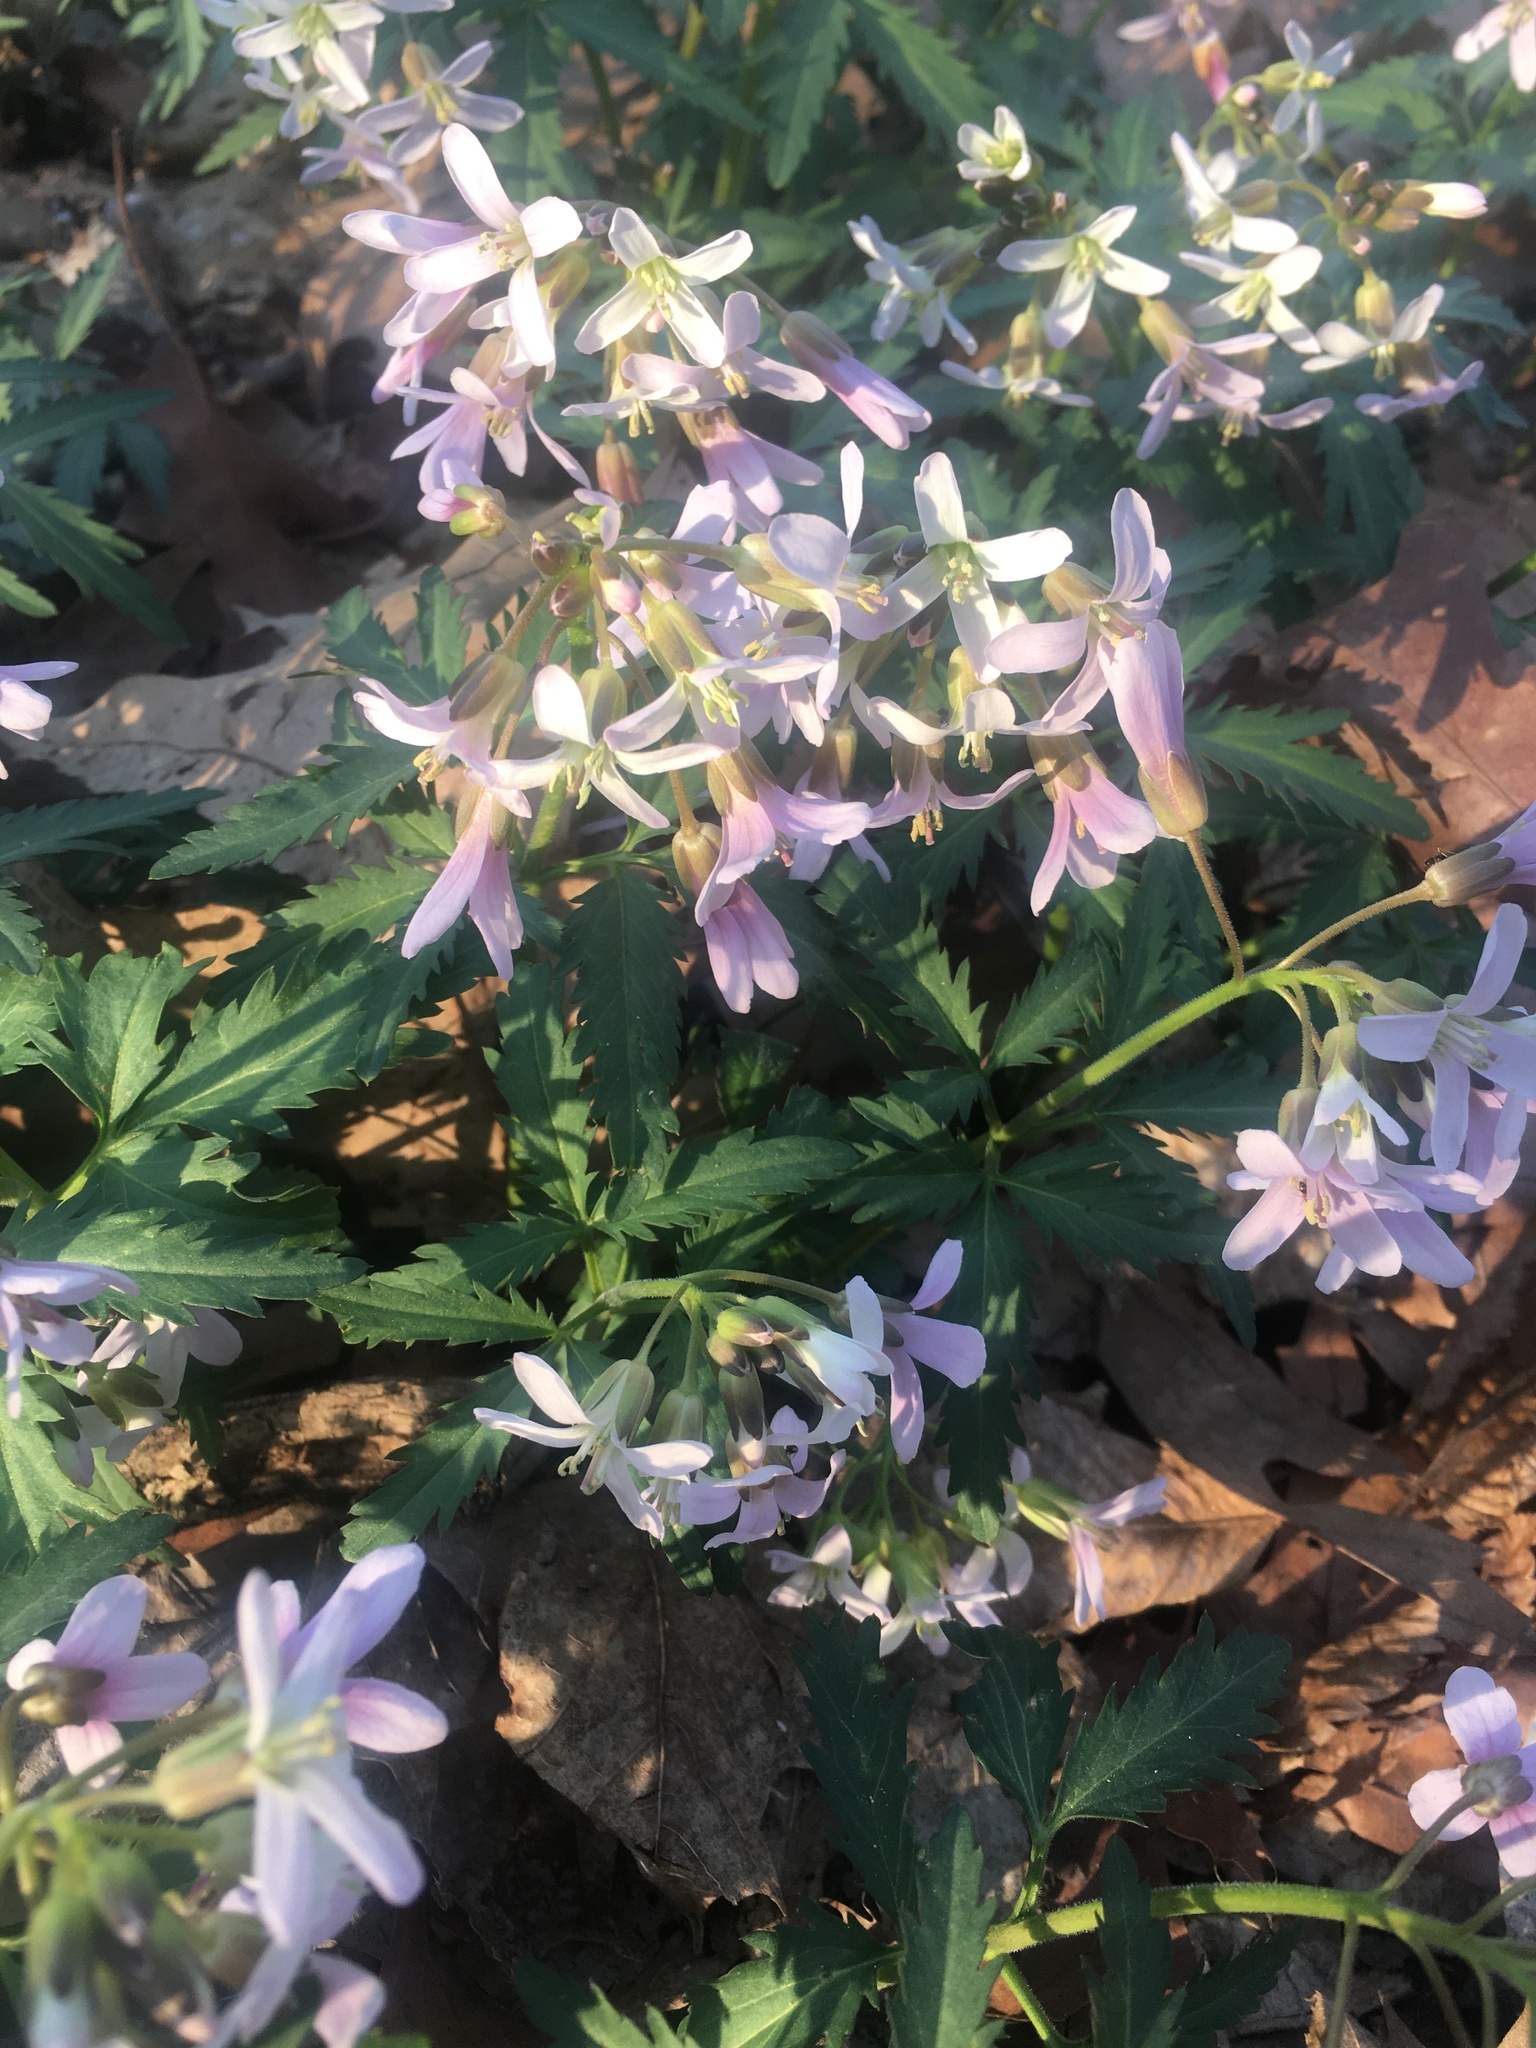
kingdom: Plantae
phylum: Tracheophyta
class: Magnoliopsida
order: Brassicales
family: Brassicaceae
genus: Cardamine
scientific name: Cardamine concatenata
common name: Cut-leaf toothcup
